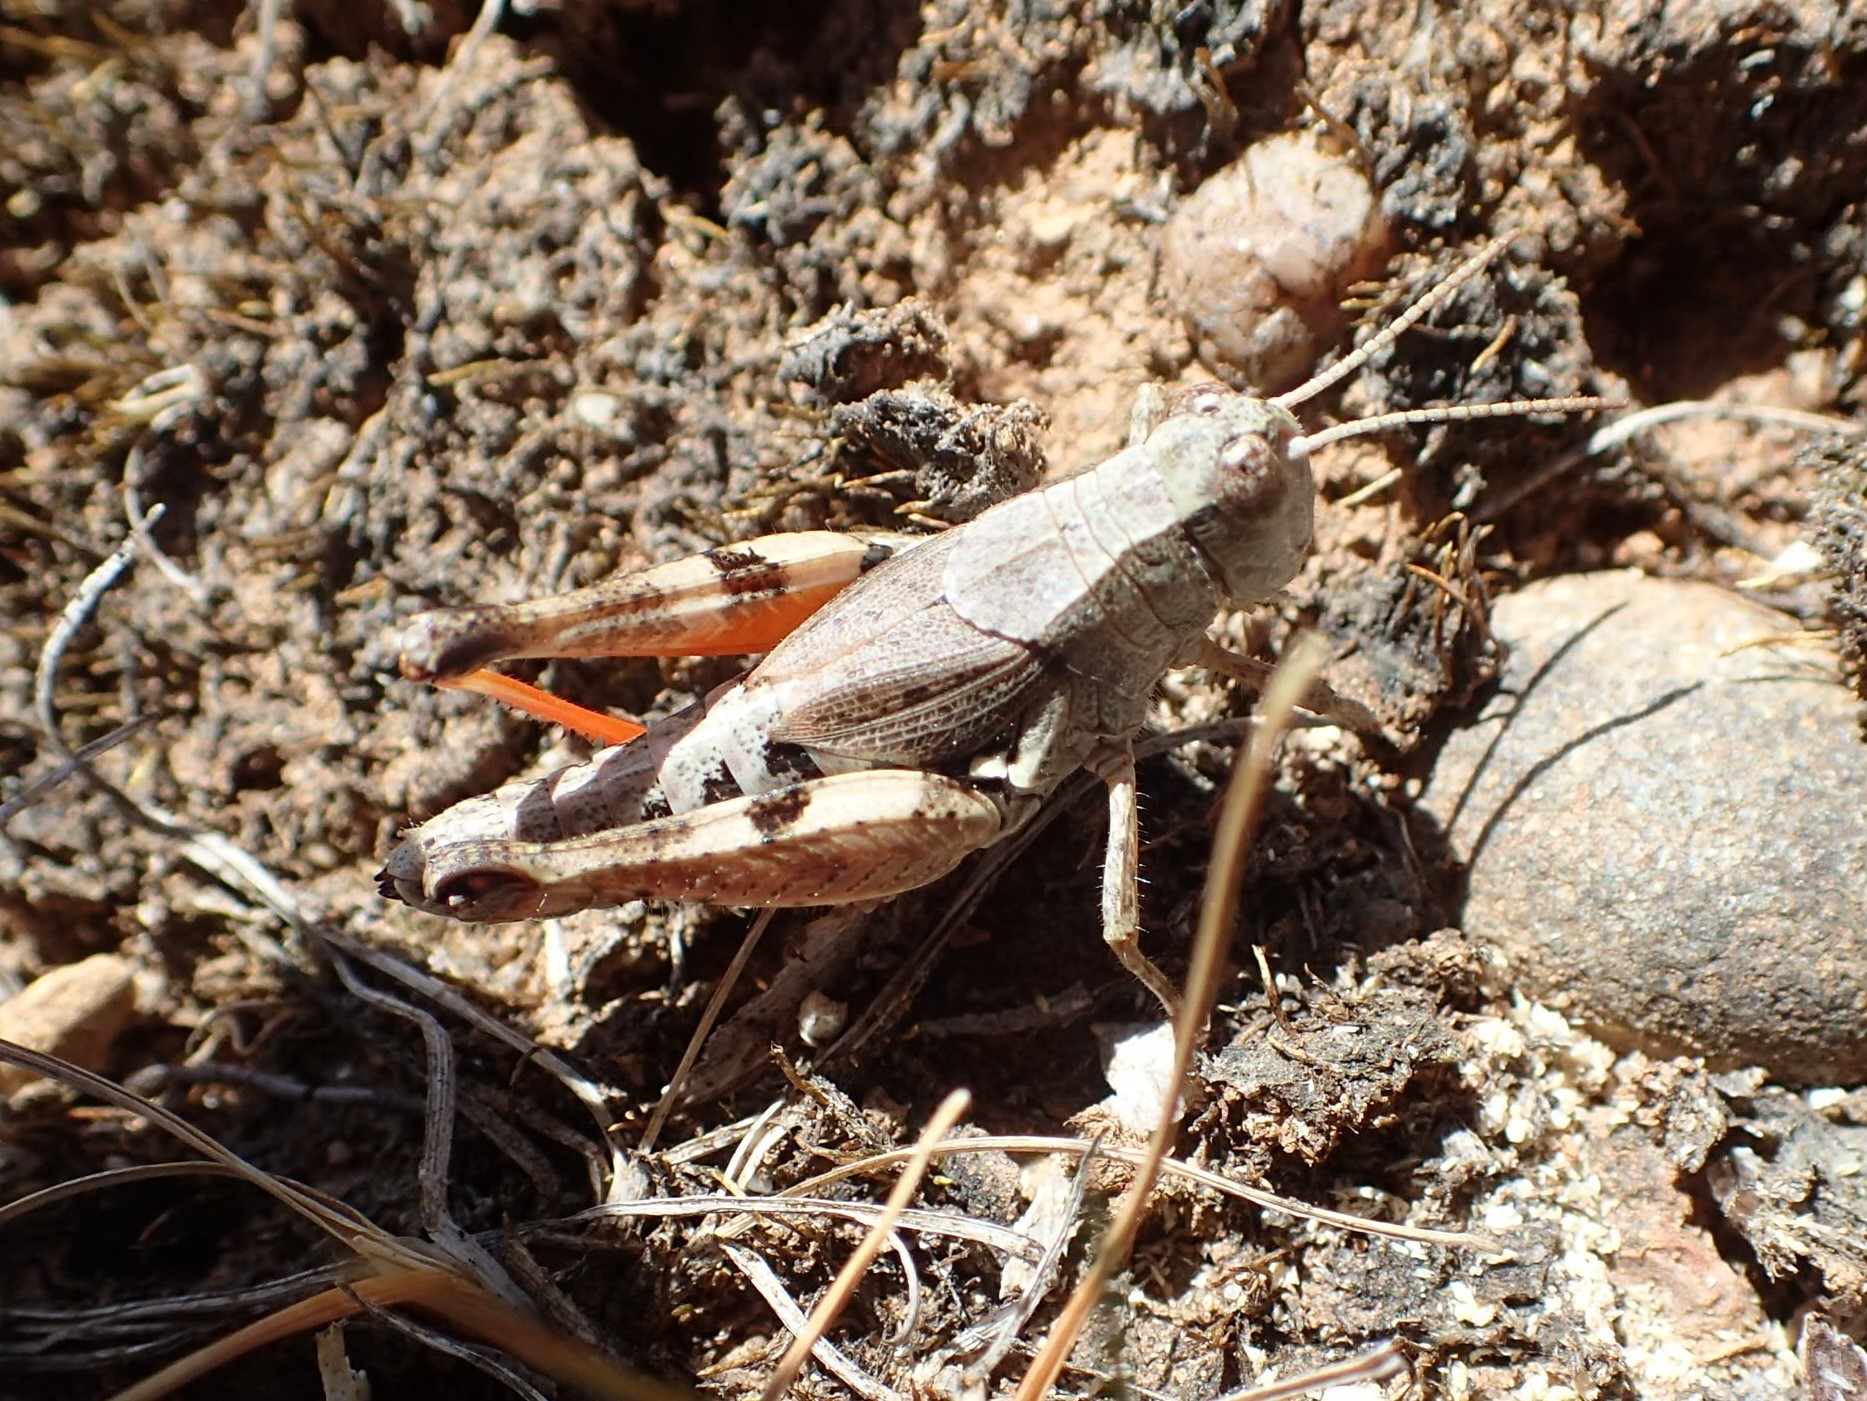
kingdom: Animalia
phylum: Arthropoda
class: Insecta
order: Orthoptera
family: Acrididae
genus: Phaulacridium
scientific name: Phaulacridium vittatum
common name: Wingless grasshopper
